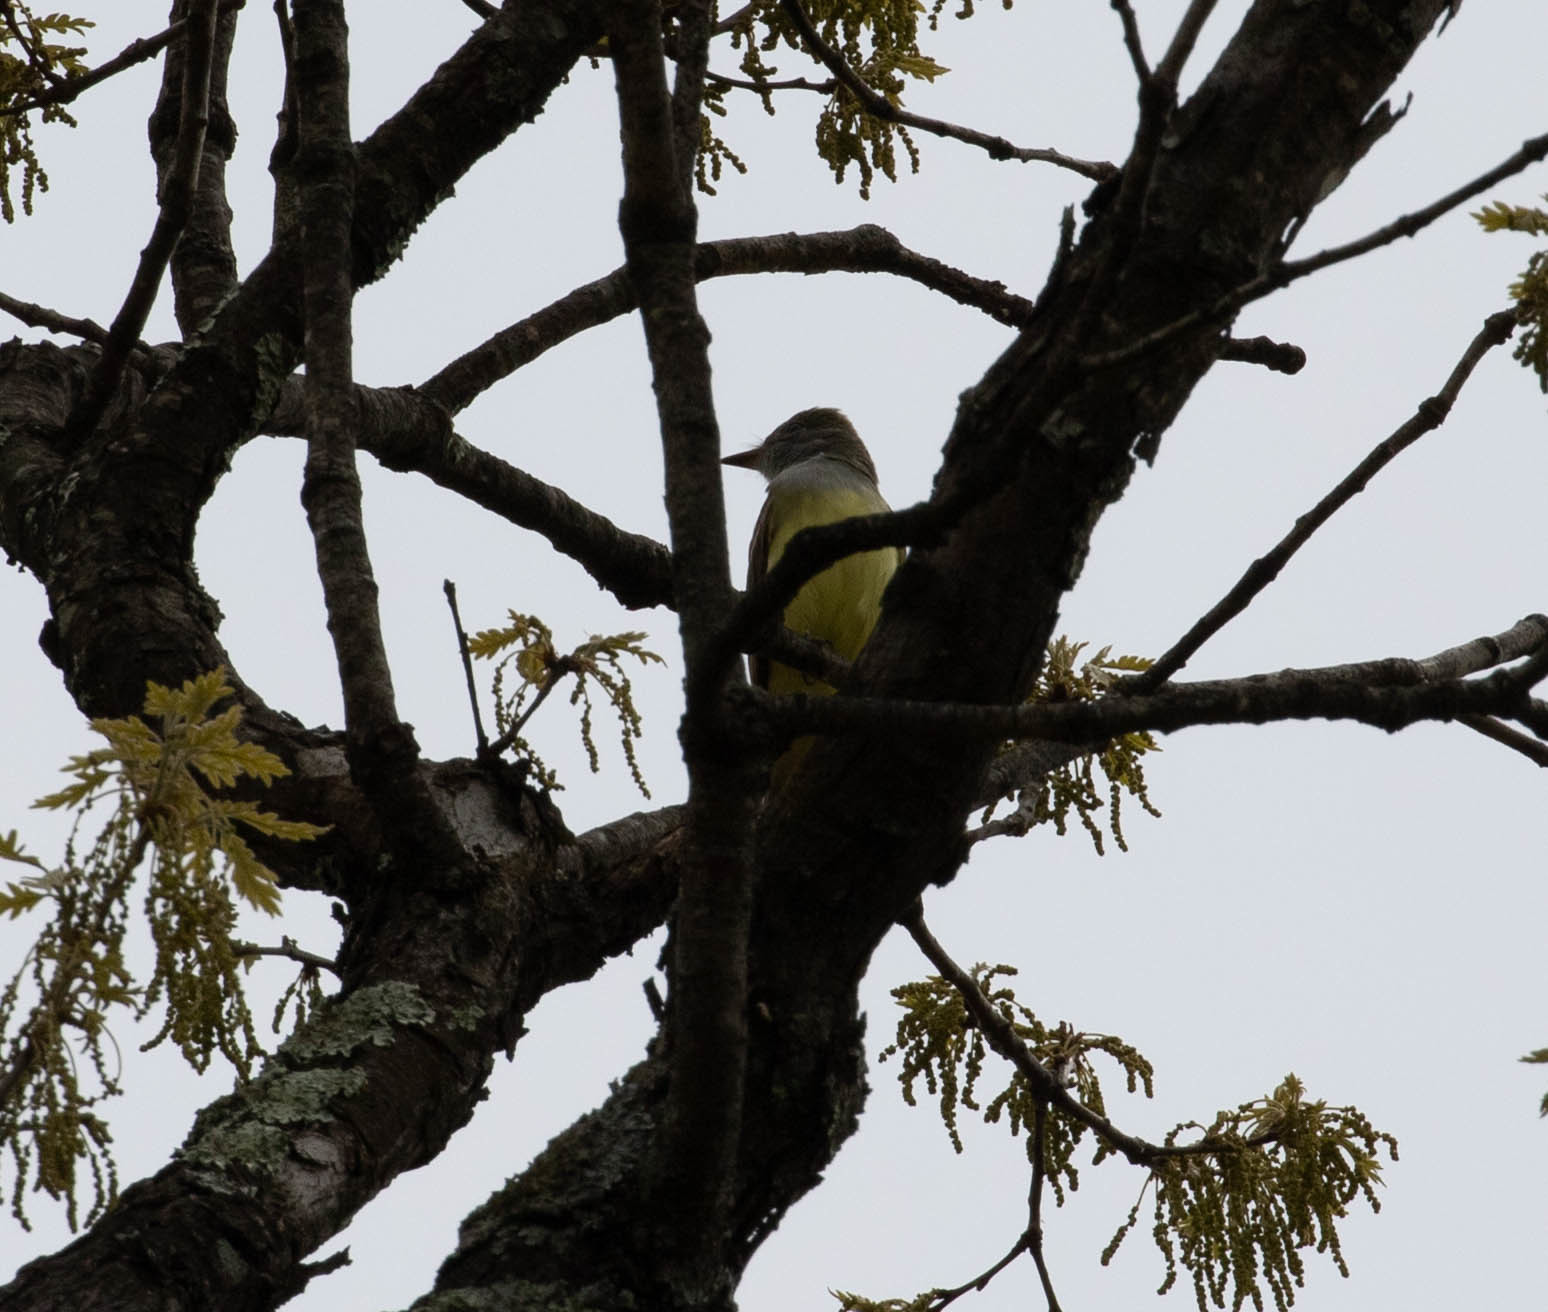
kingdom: Animalia
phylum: Chordata
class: Aves
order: Passeriformes
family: Tyrannidae
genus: Myiarchus
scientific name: Myiarchus crinitus
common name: Great crested flycatcher
